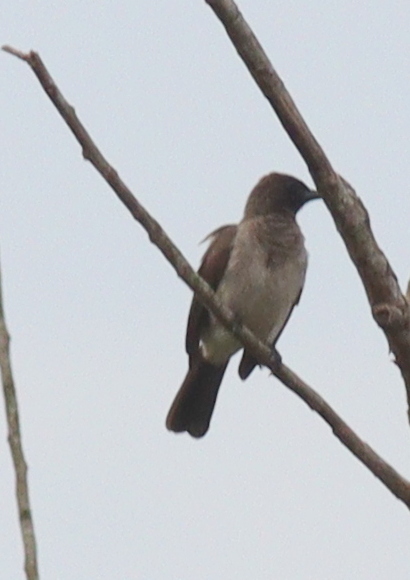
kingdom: Animalia
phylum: Chordata
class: Aves
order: Passeriformes
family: Pycnonotidae
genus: Pycnonotus
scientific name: Pycnonotus barbatus
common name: Common bulbul
